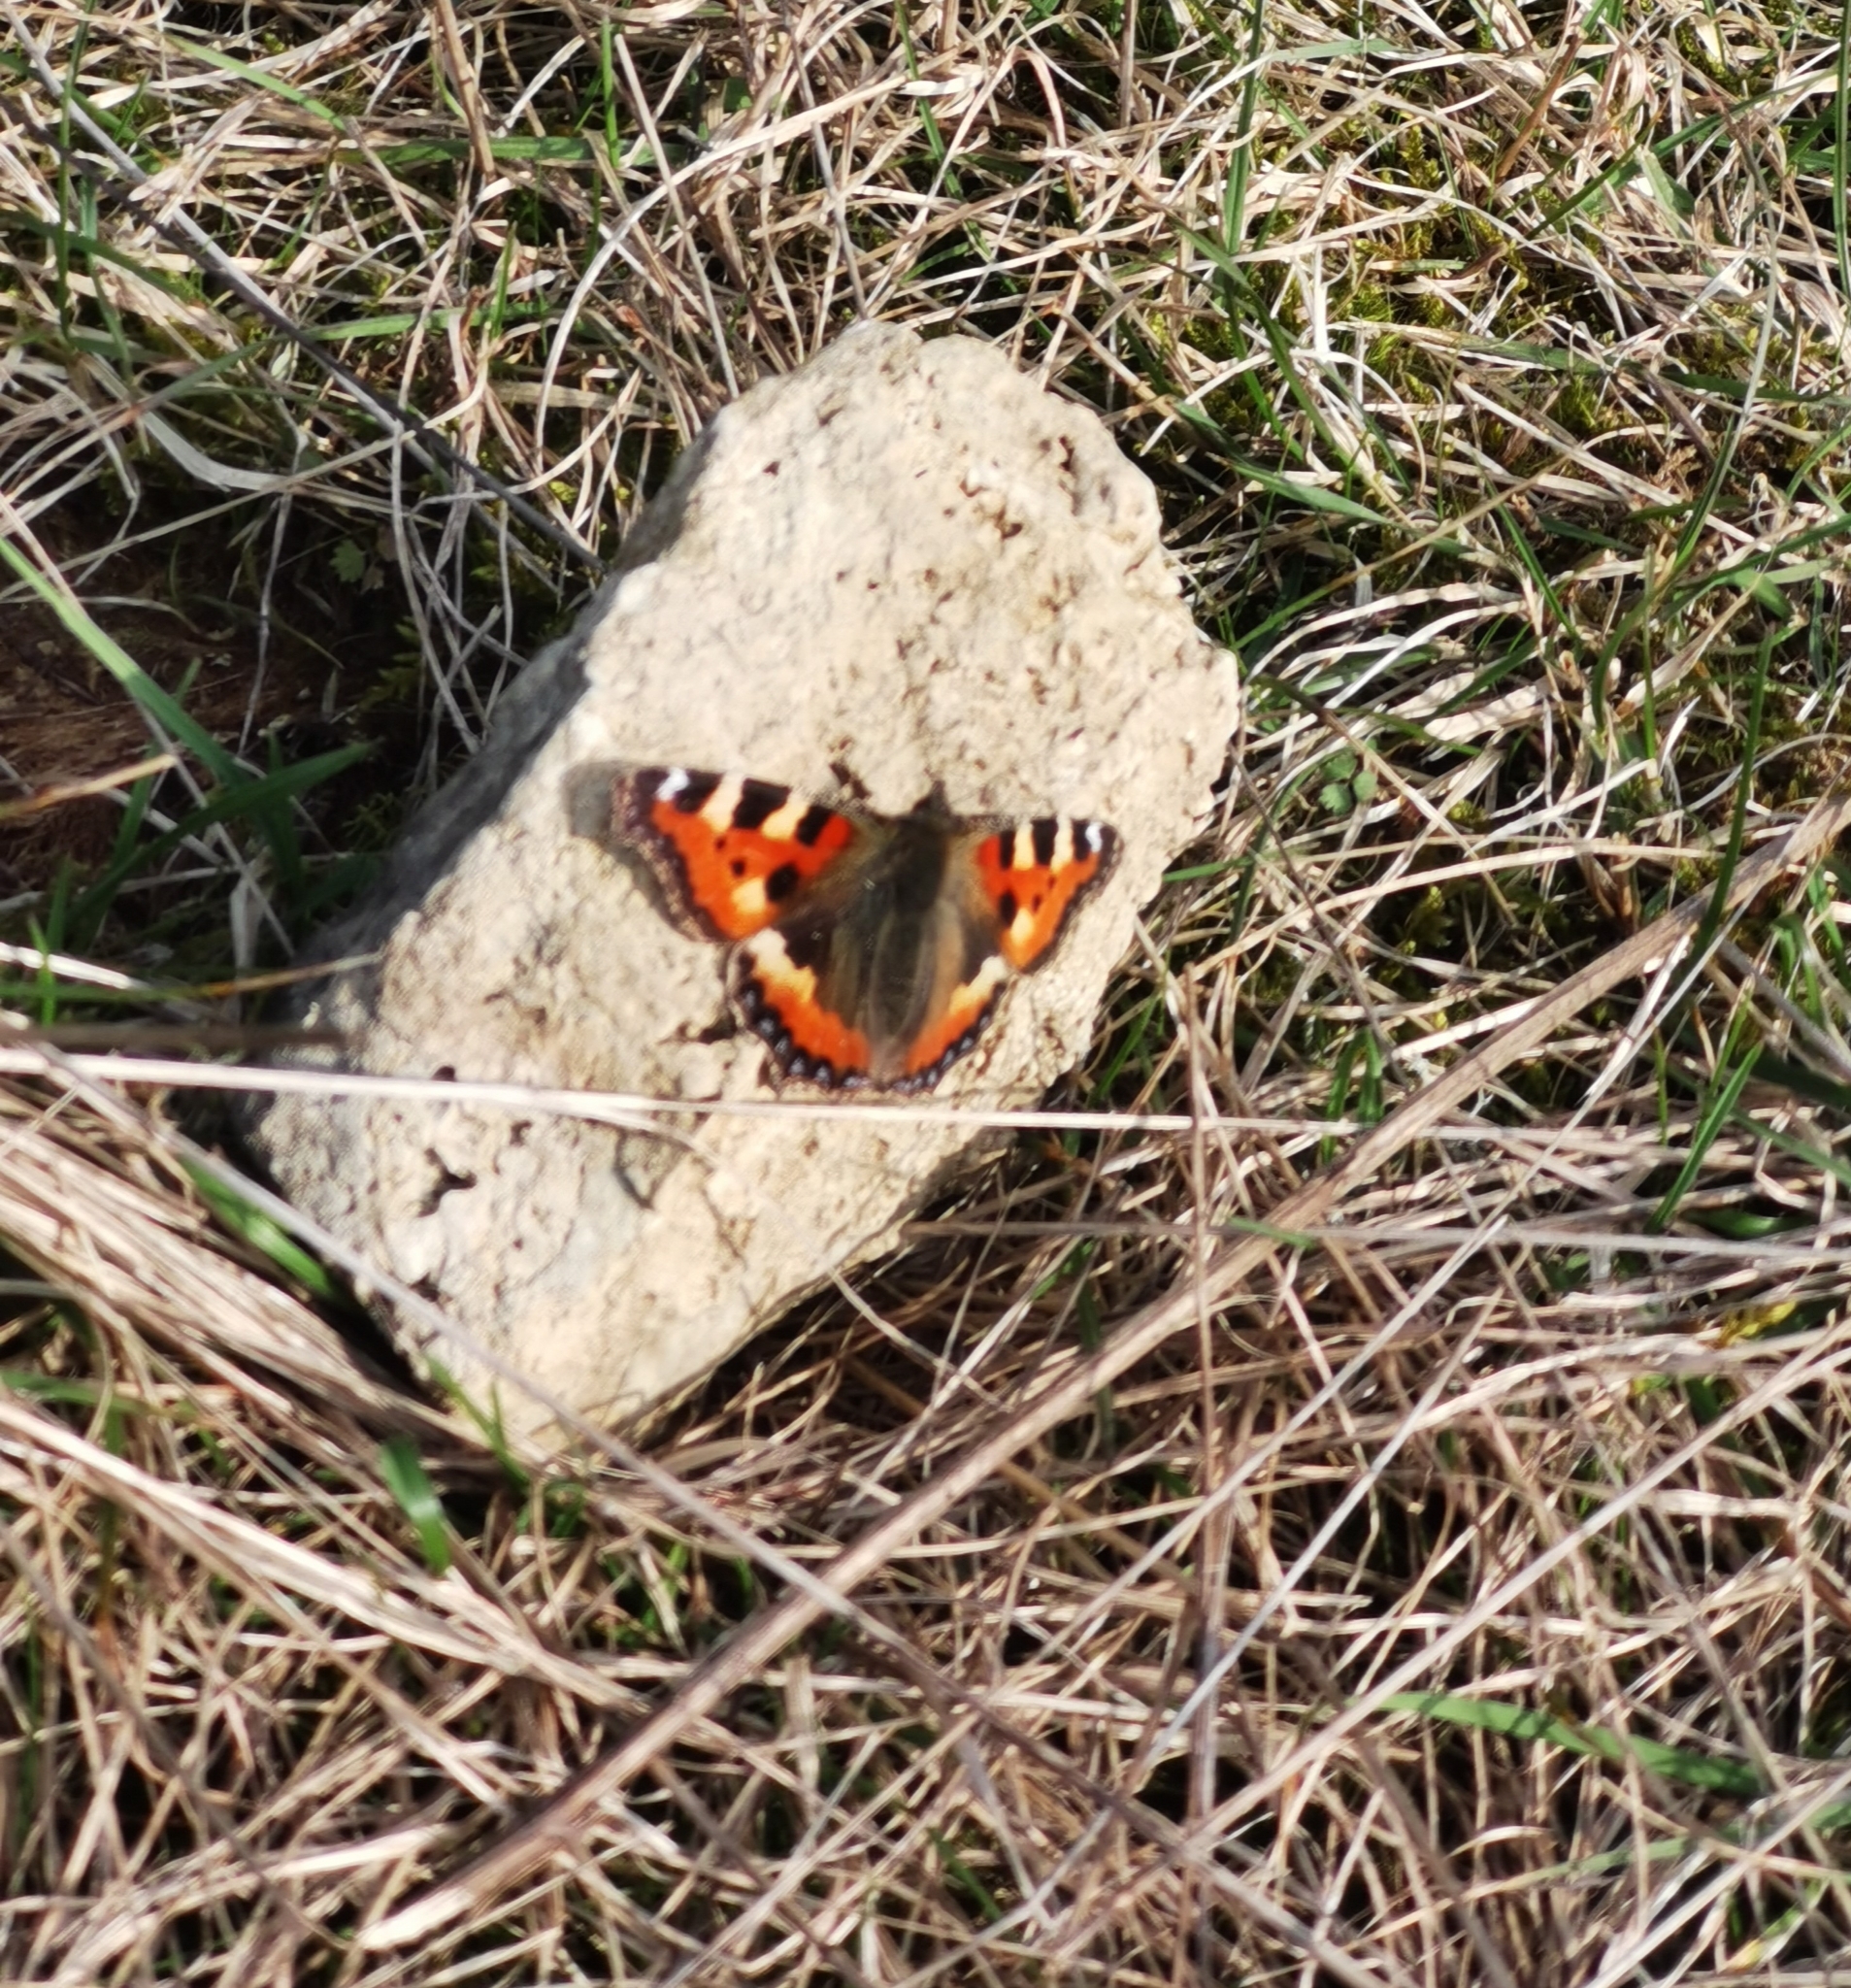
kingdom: Animalia
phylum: Arthropoda
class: Insecta
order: Lepidoptera
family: Nymphalidae
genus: Aglais
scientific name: Aglais urticae
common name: Small tortoiseshell
